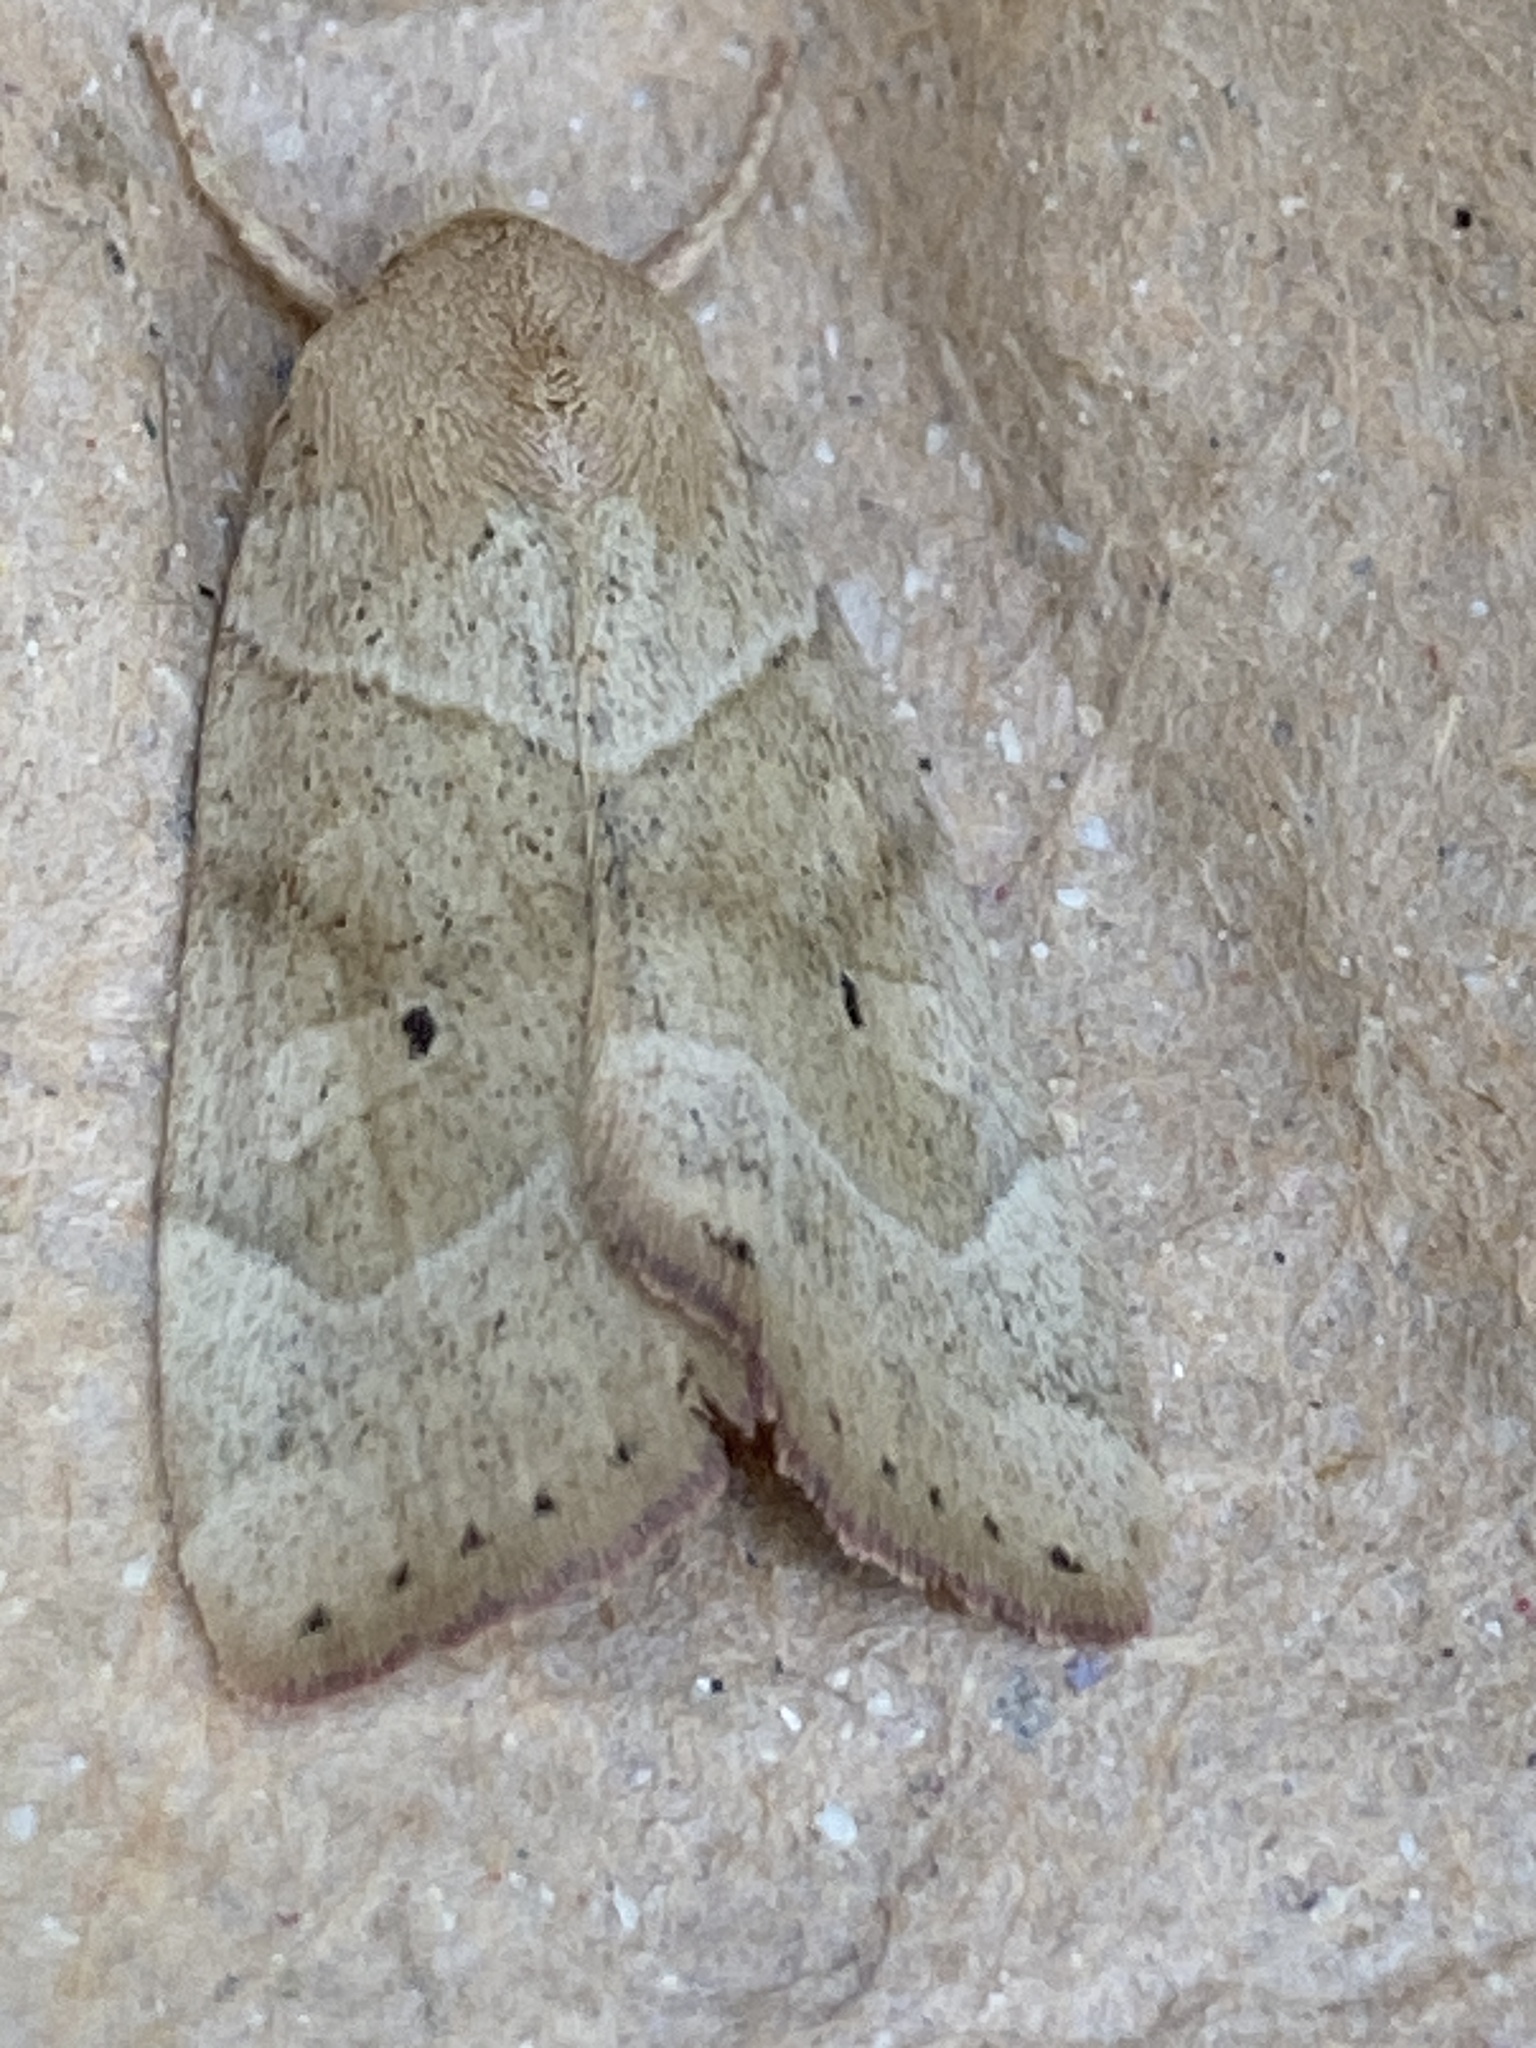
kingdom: Animalia
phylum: Arthropoda
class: Insecta
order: Lepidoptera
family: Noctuidae
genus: Cosmia
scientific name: Cosmia trapezina
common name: Dun-bar
